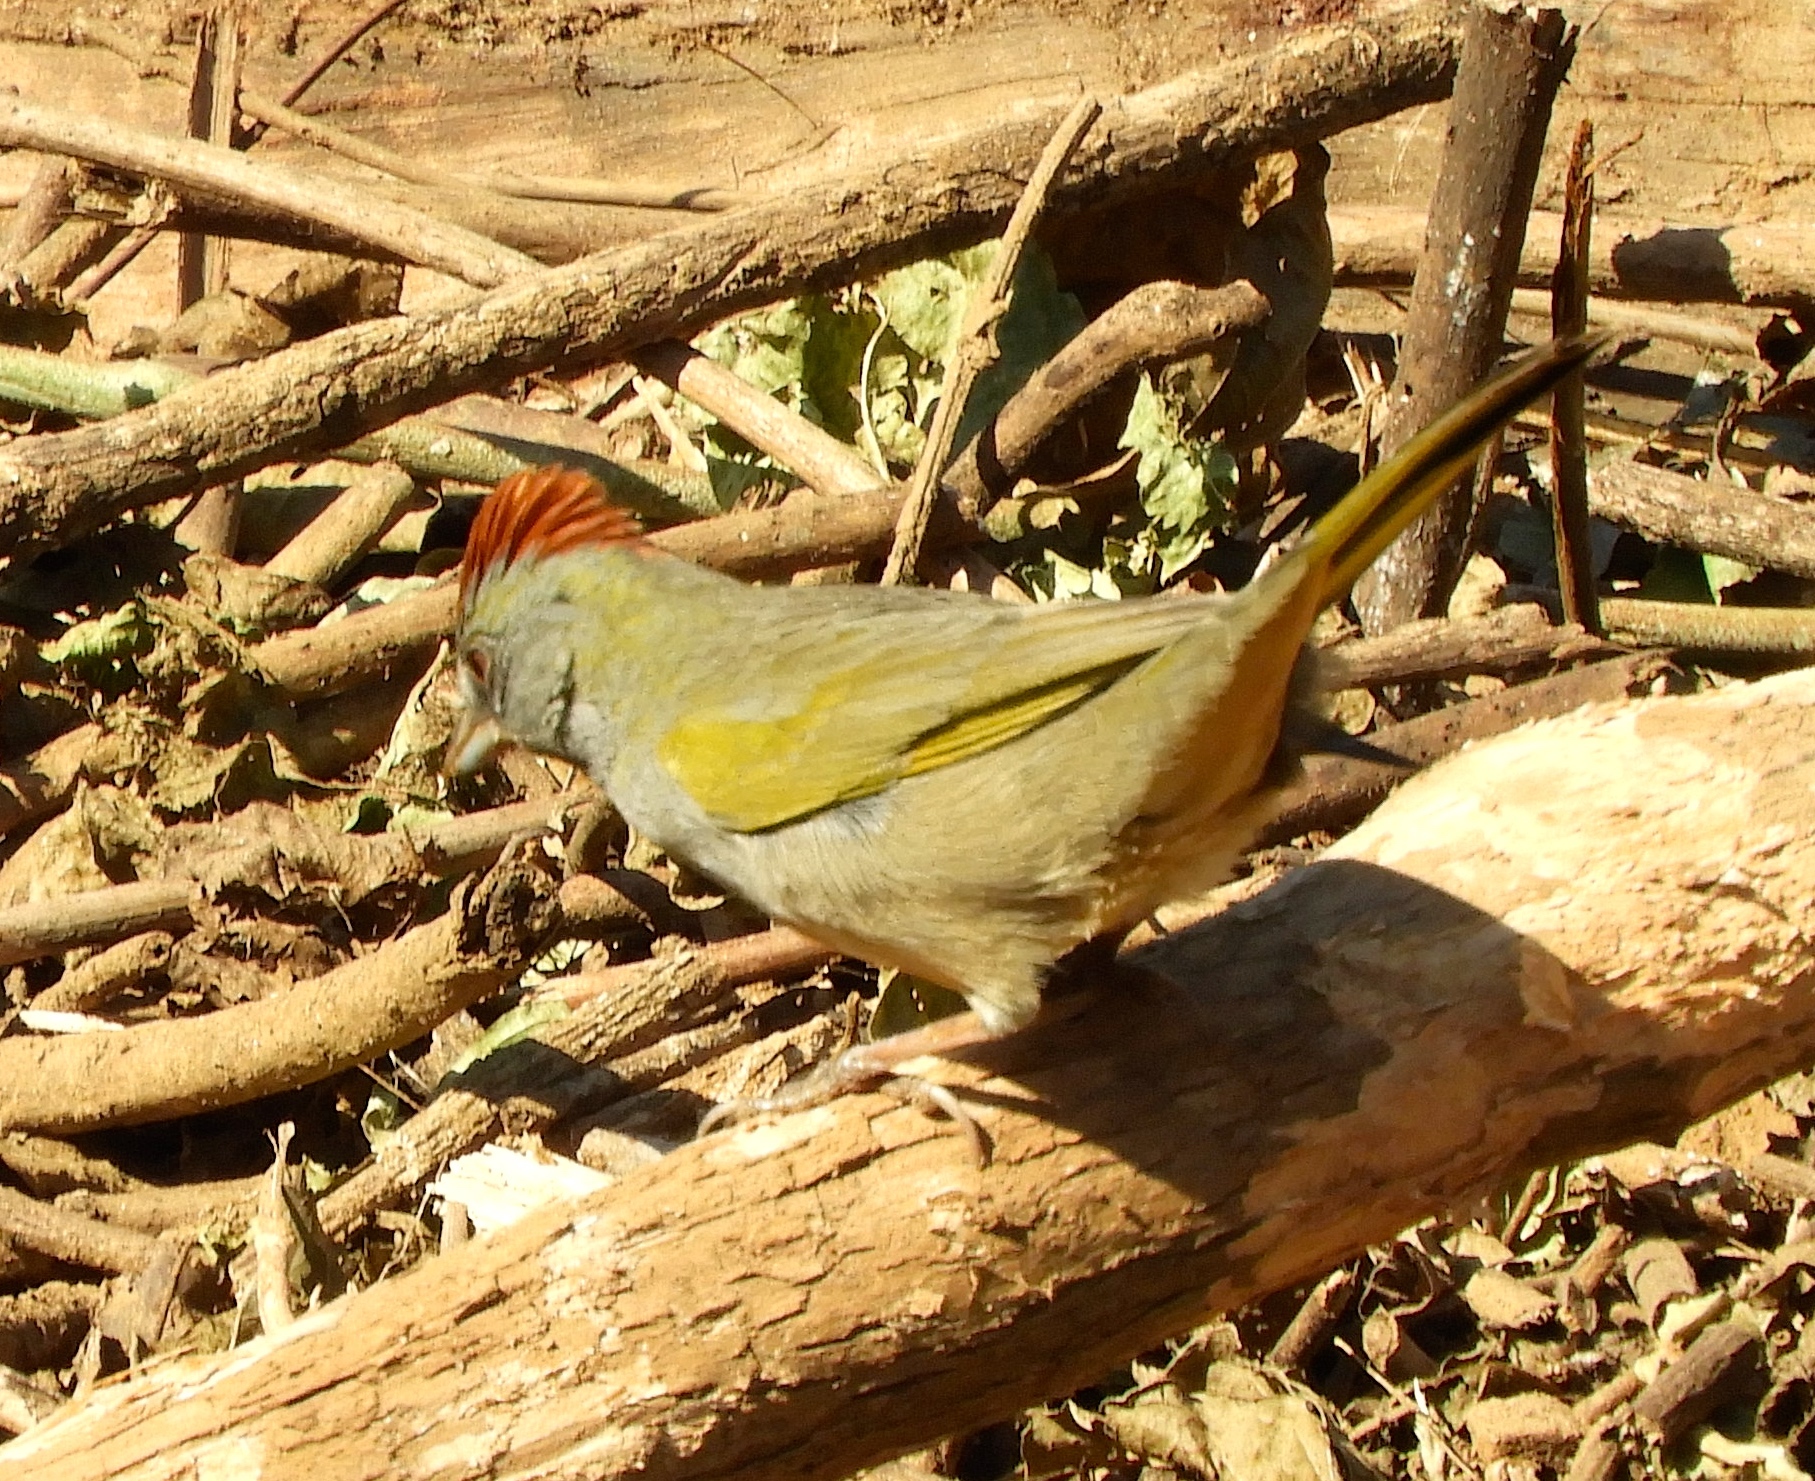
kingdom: Animalia
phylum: Chordata
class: Aves
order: Passeriformes
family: Passerellidae
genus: Pipilo
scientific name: Pipilo chlorurus
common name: Green-tailed towhee
